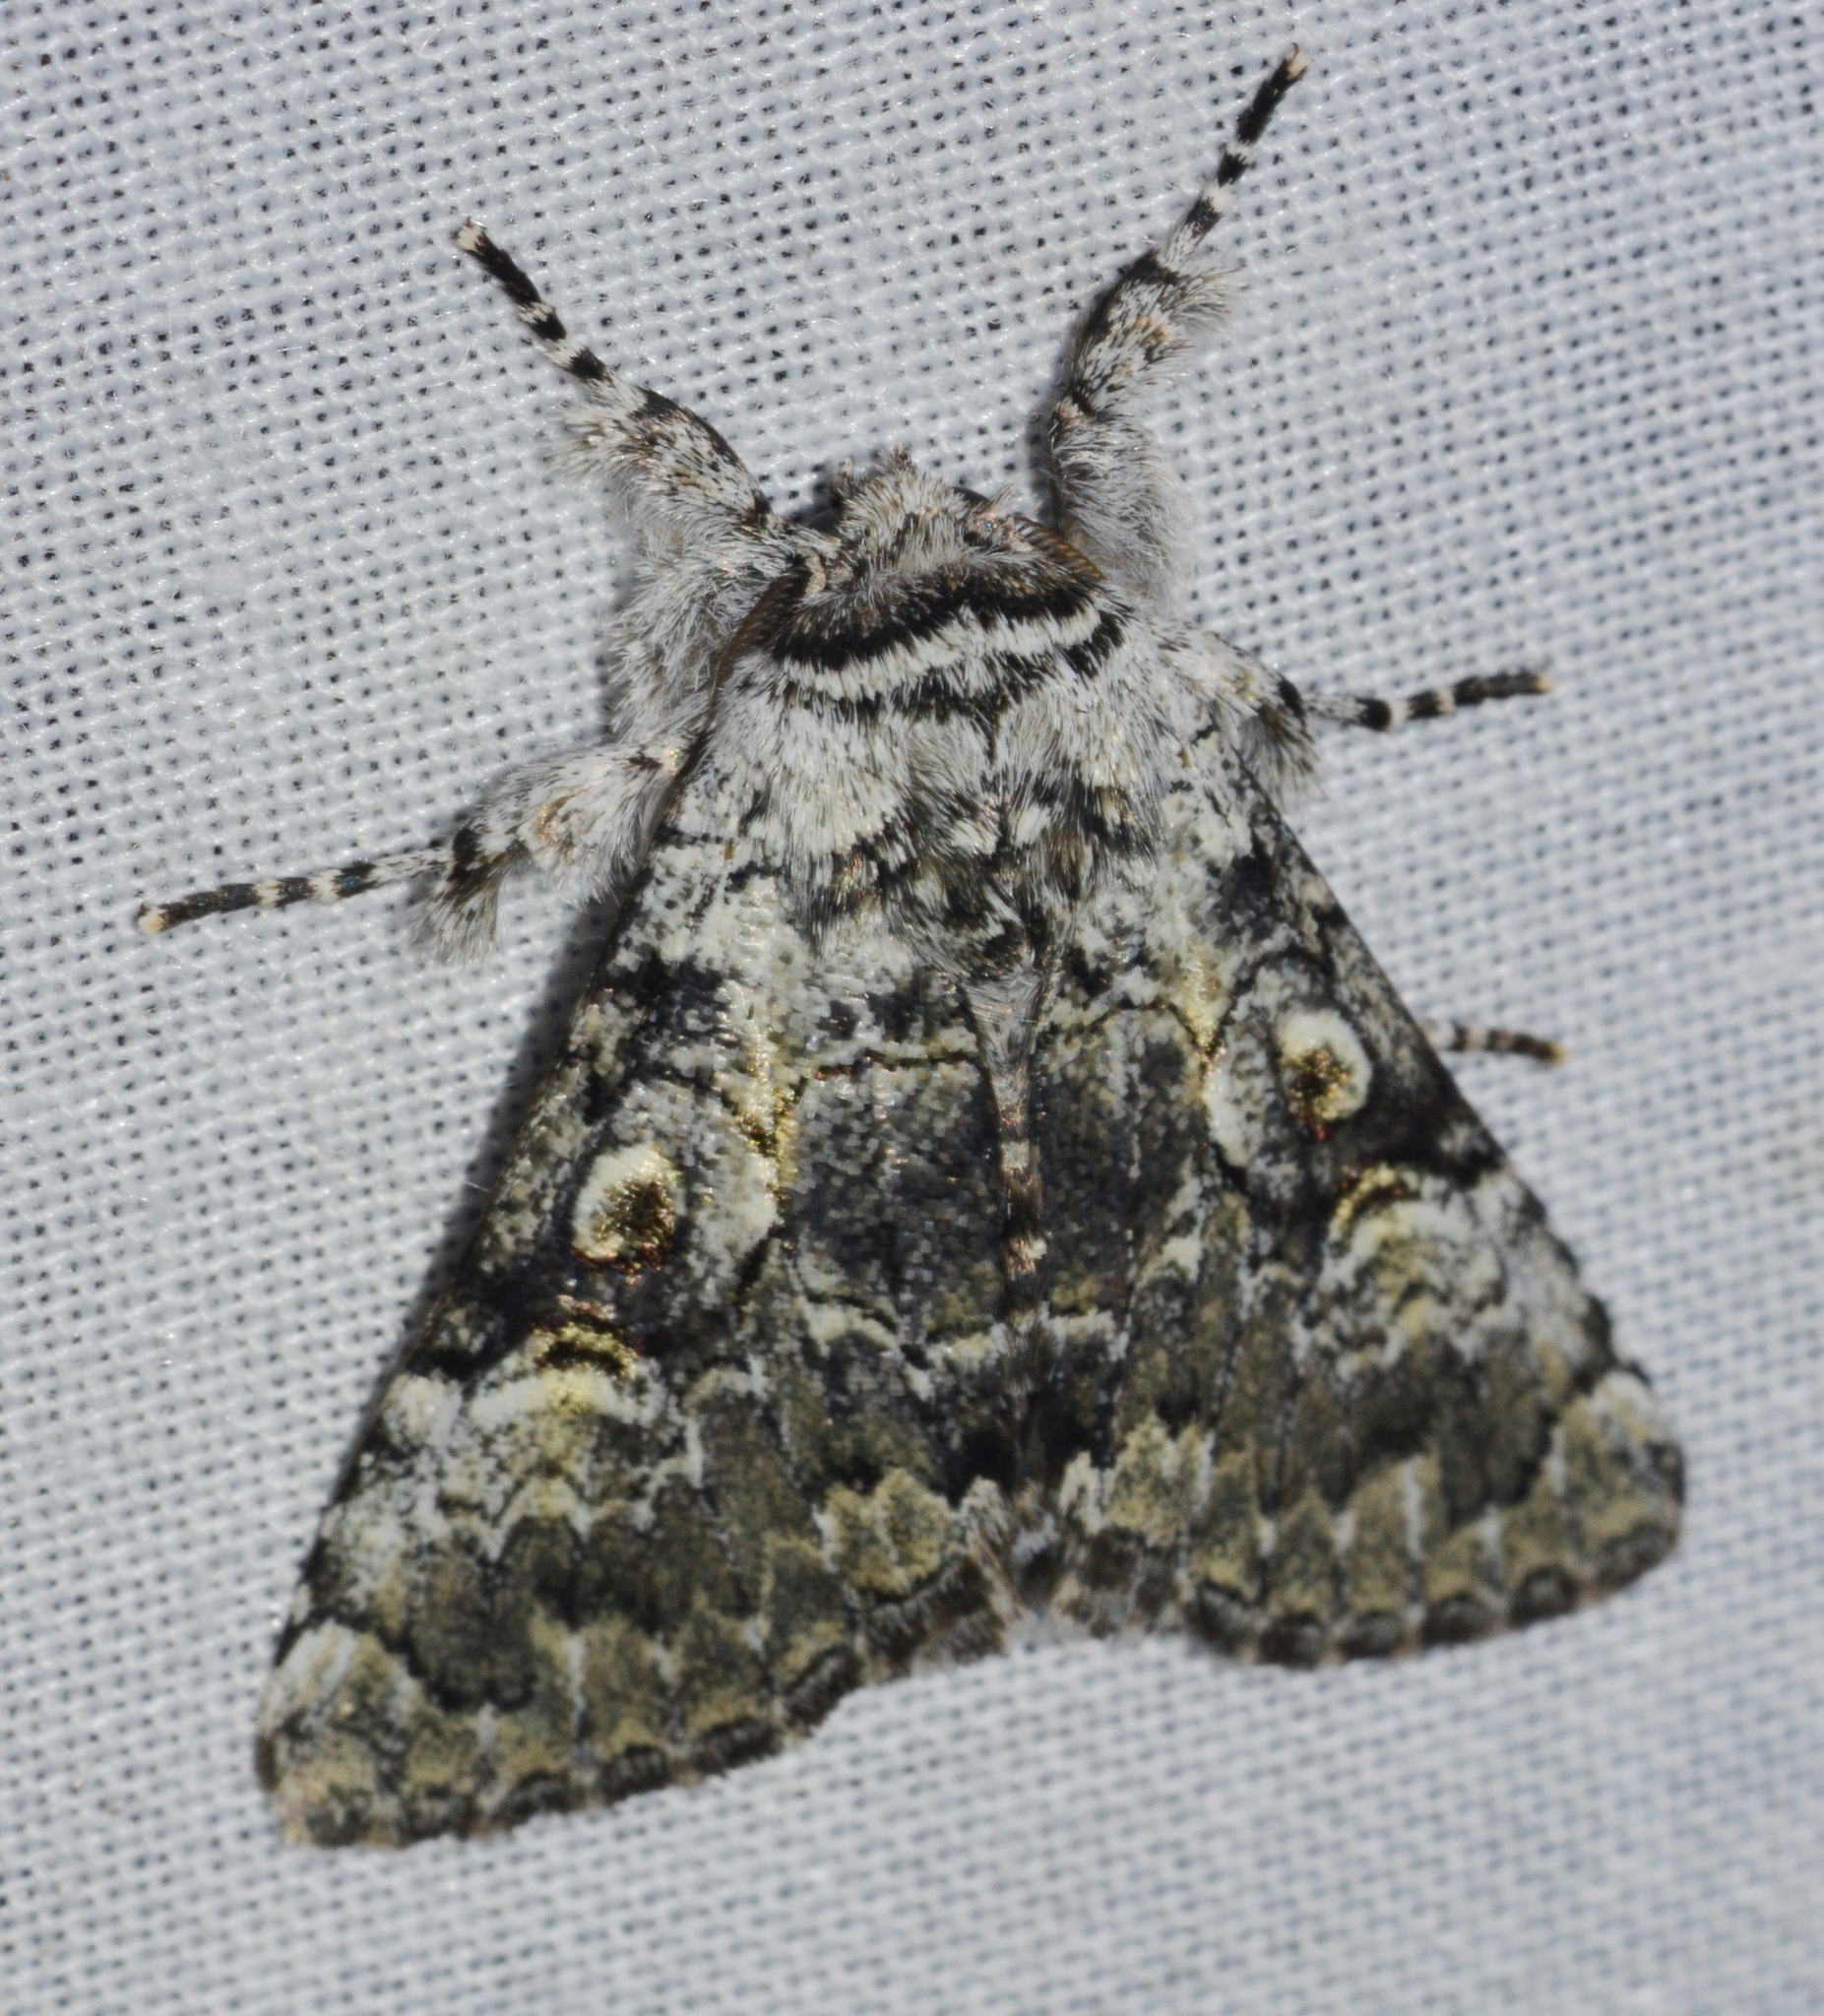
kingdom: Animalia
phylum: Arthropoda
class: Insecta
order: Lepidoptera
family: Noctuidae
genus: Charadra
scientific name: Charadra deridens
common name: Marbled tuffet
